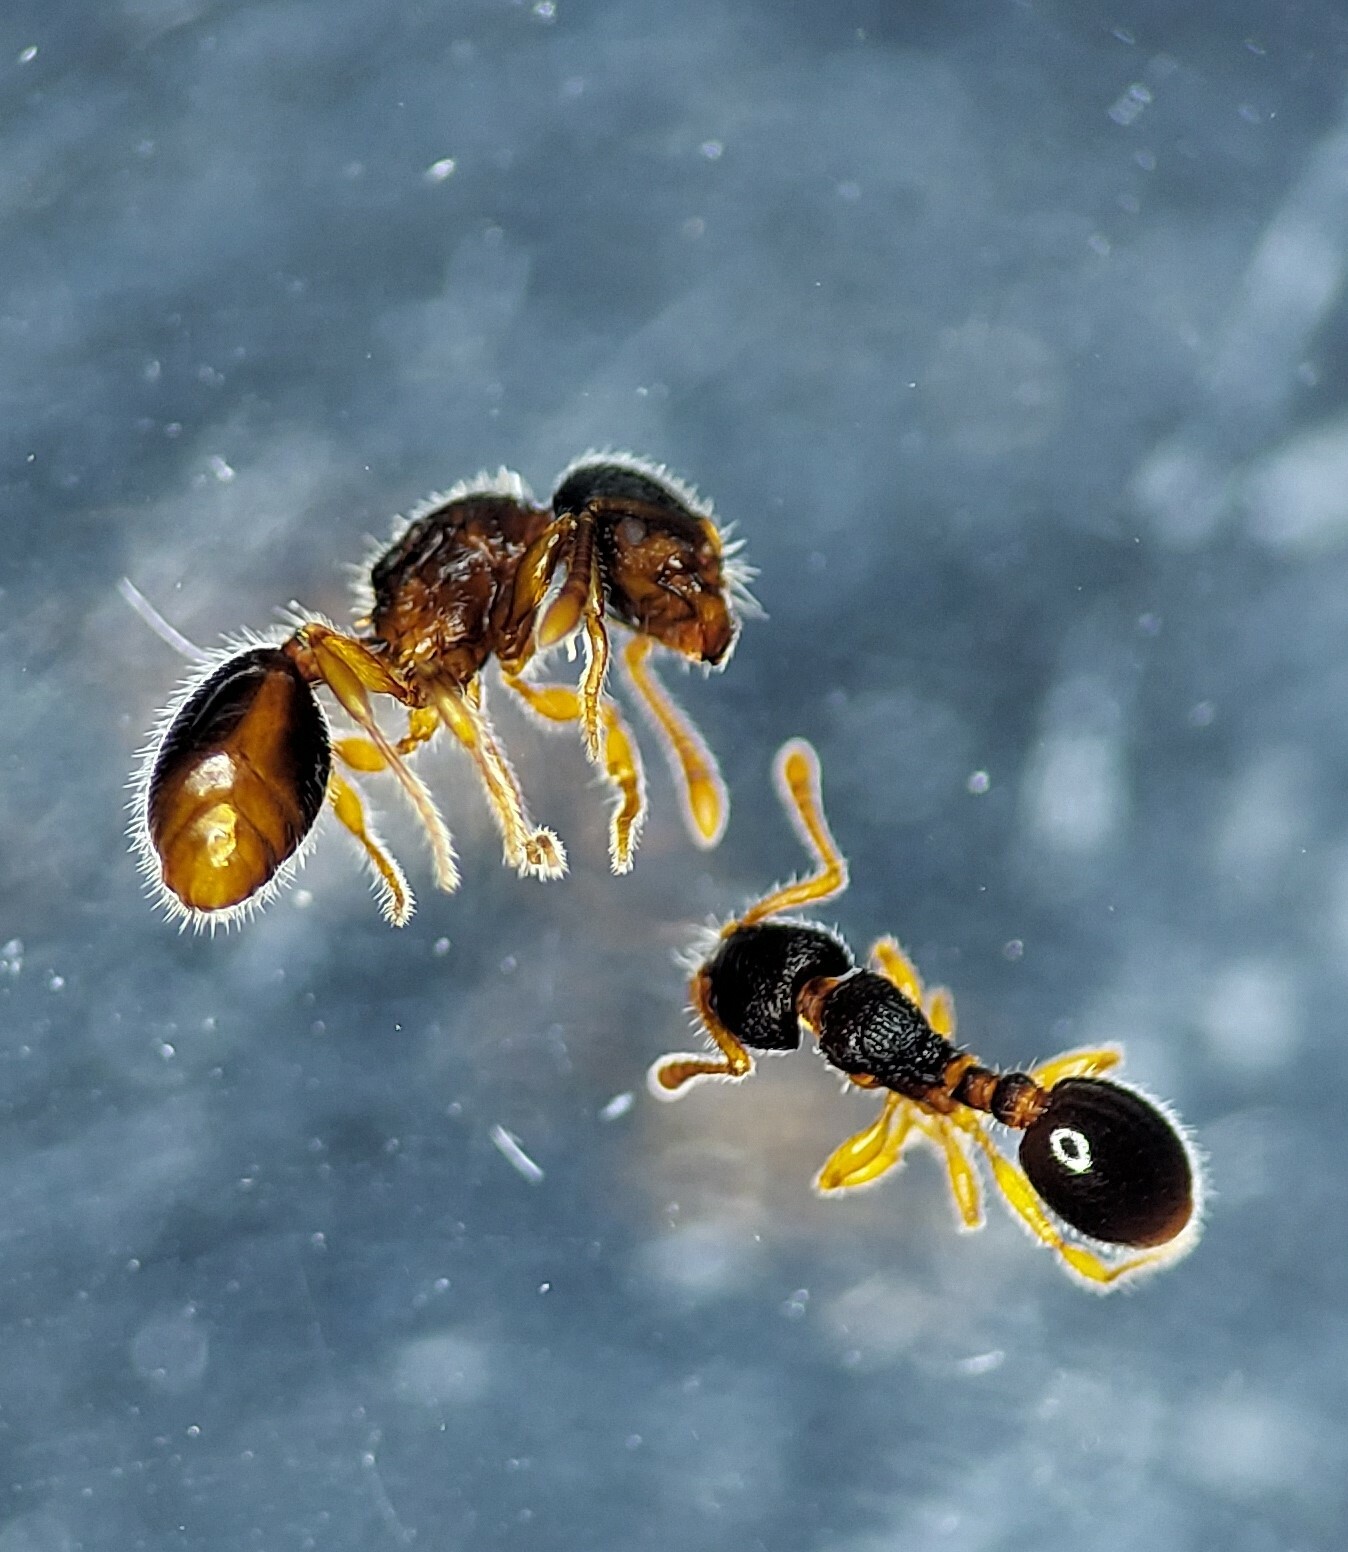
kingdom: Animalia
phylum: Arthropoda
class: Insecta
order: Hymenoptera
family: Formicidae
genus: Myrmecina
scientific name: Myrmecina americana
